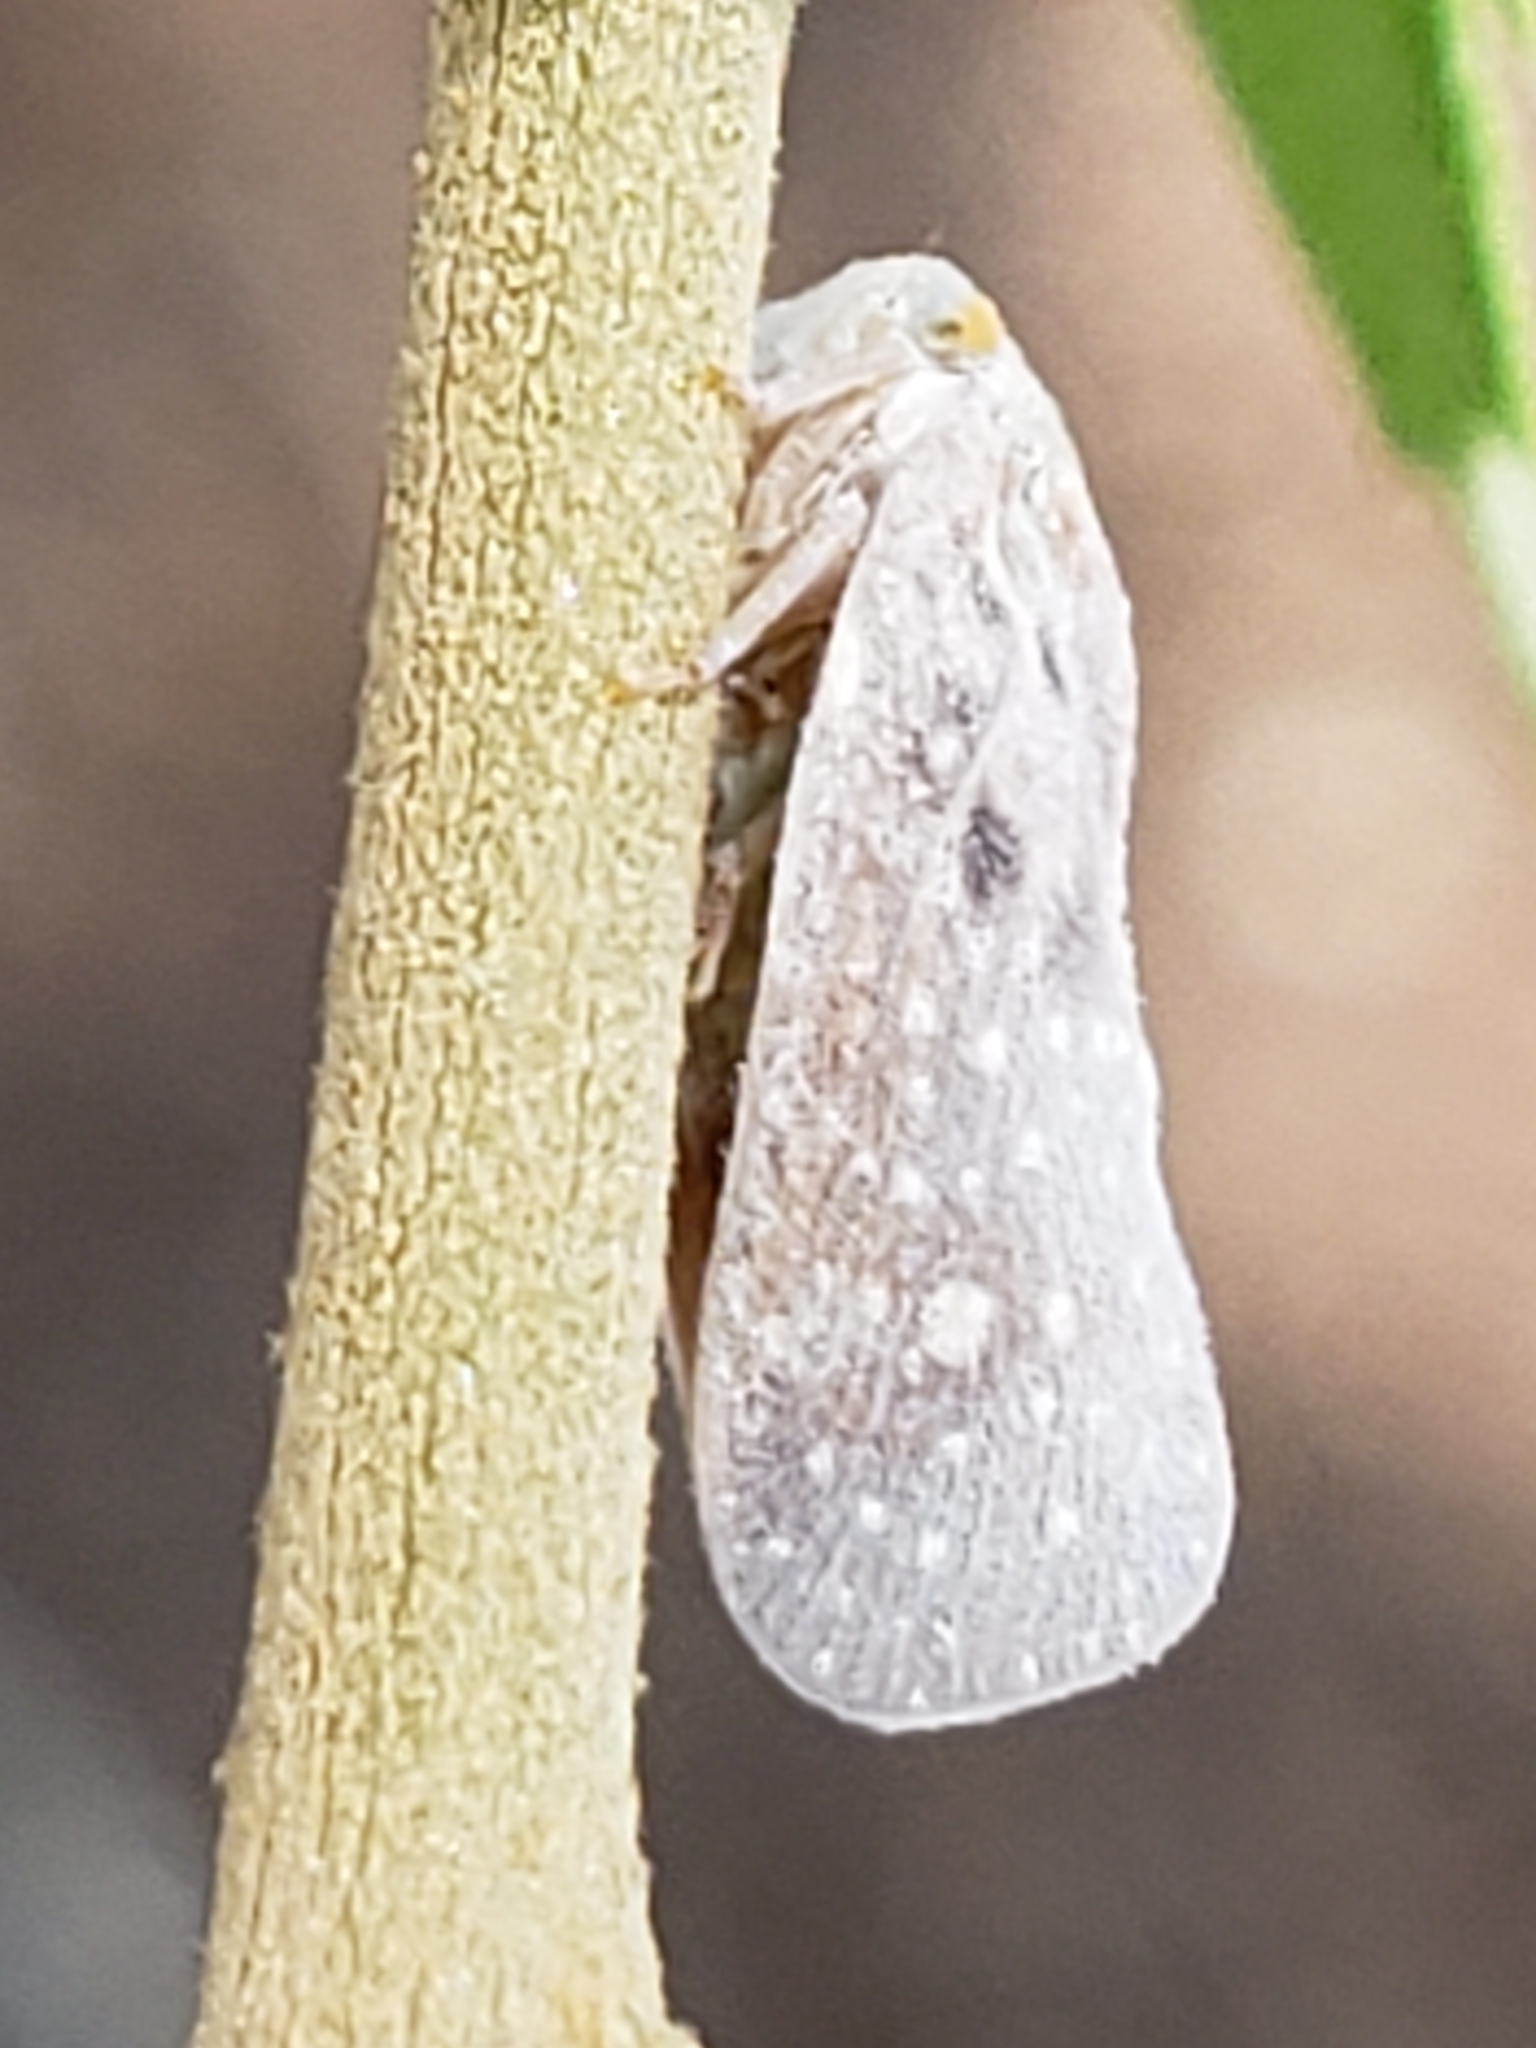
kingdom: Animalia
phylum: Arthropoda
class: Insecta
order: Hemiptera
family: Flatidae
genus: Metcalfa
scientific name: Metcalfa pruinosa
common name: Citrus flatid planthopper
